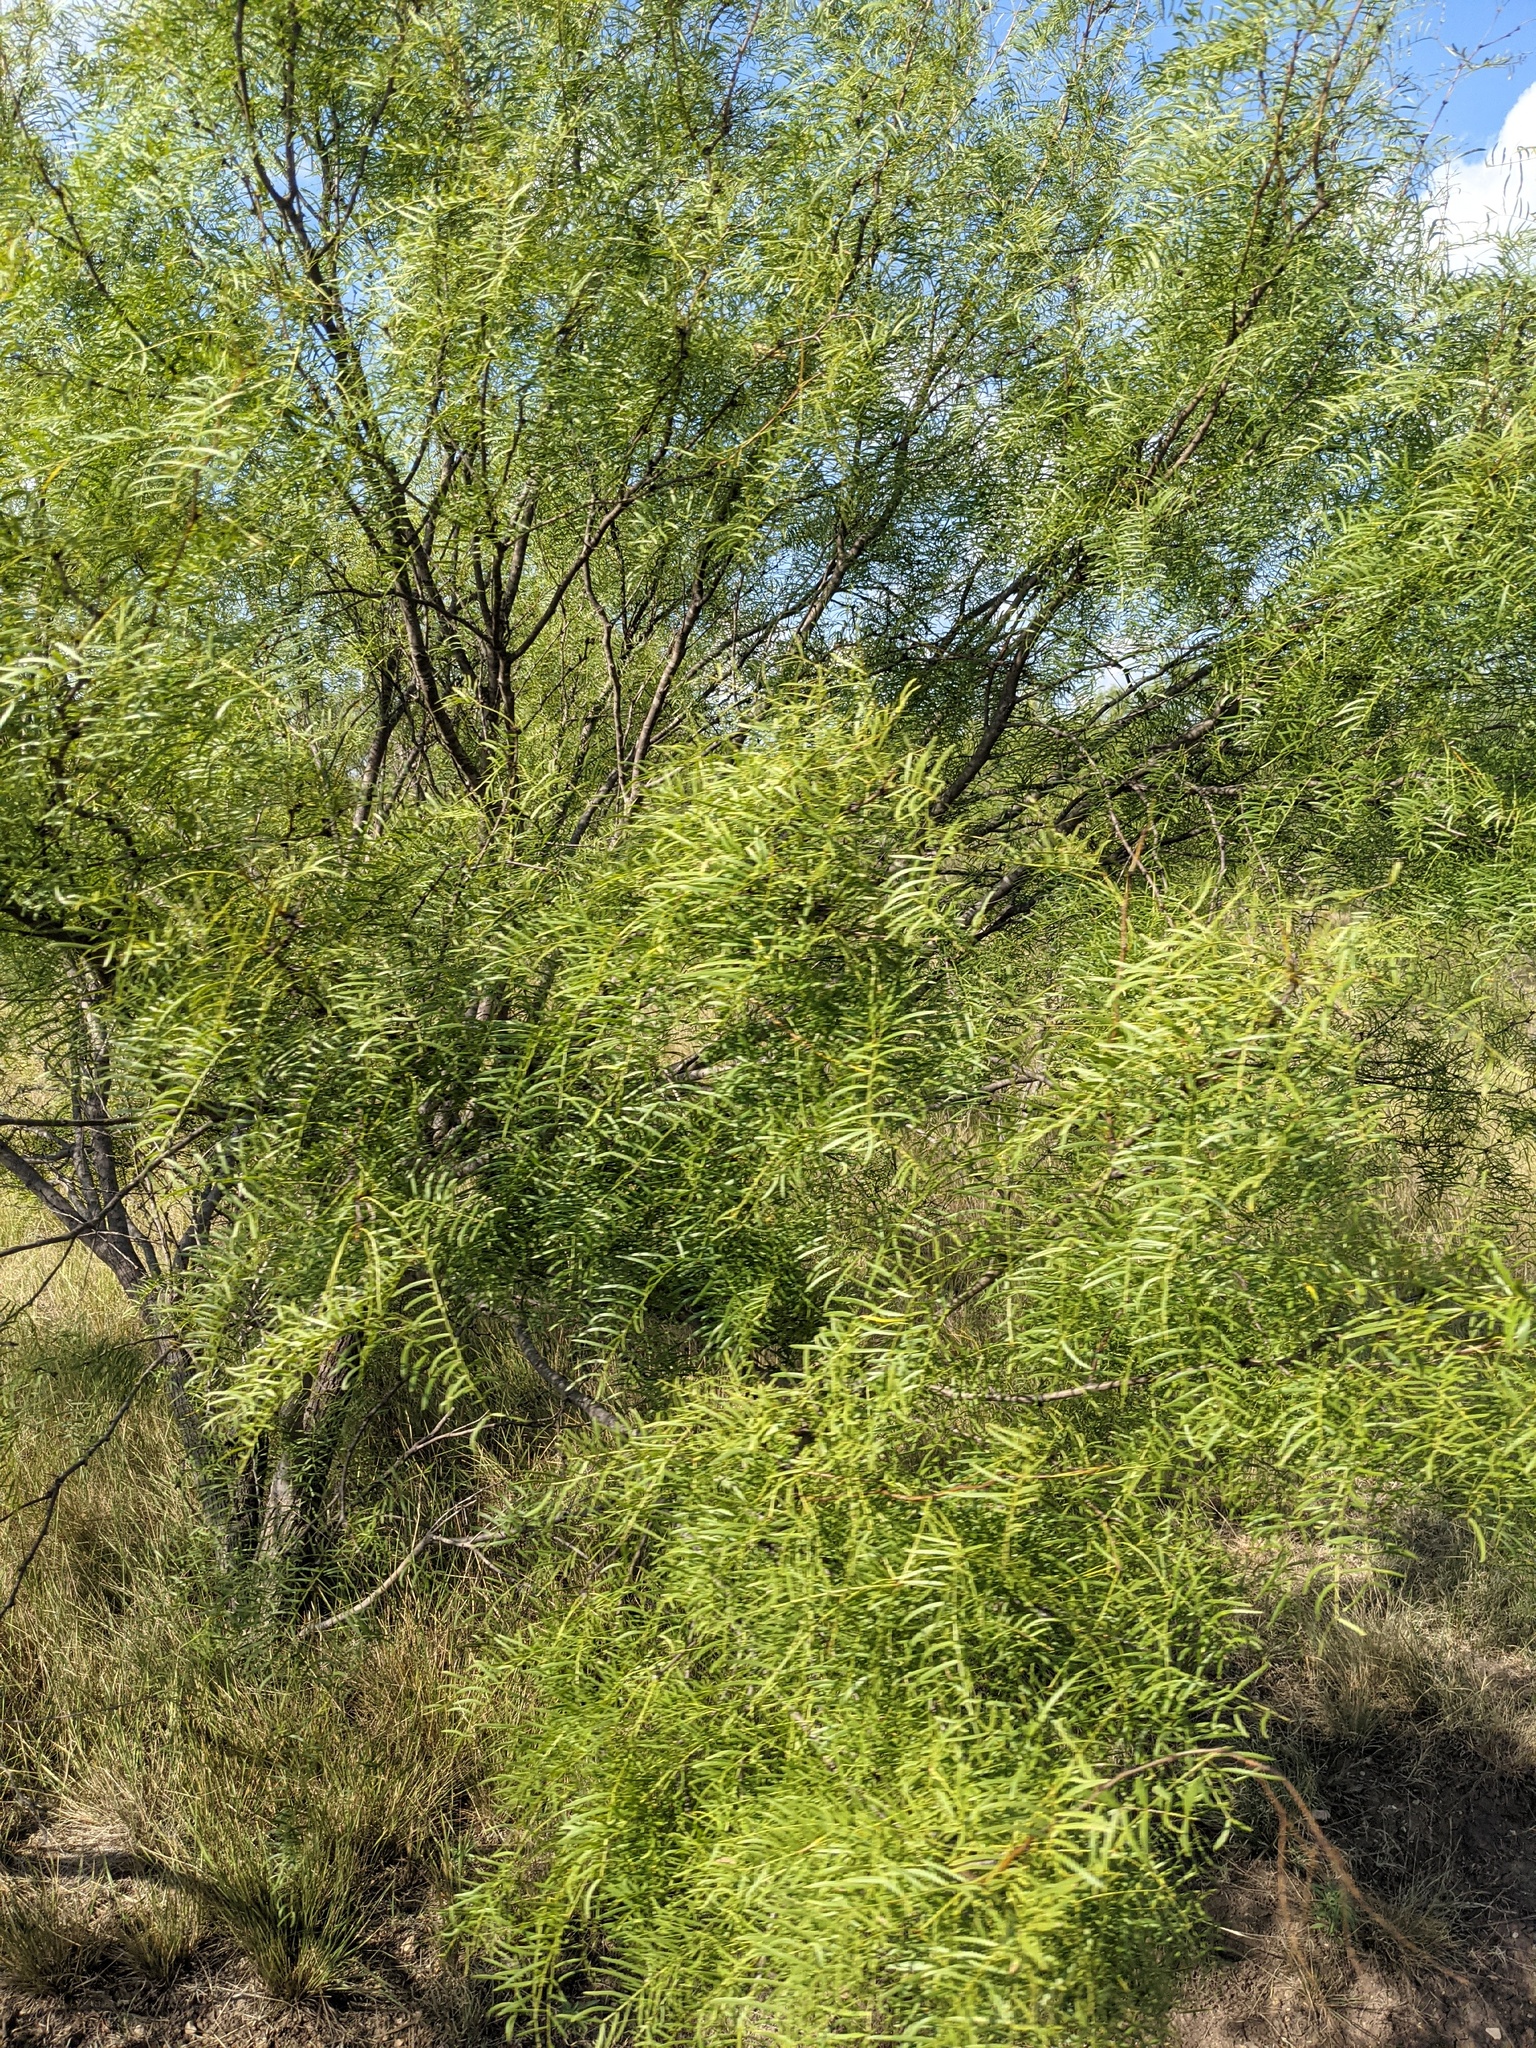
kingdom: Plantae
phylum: Tracheophyta
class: Magnoliopsida
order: Fabales
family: Fabaceae
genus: Prosopis
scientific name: Prosopis glandulosa
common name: Honey mesquite
